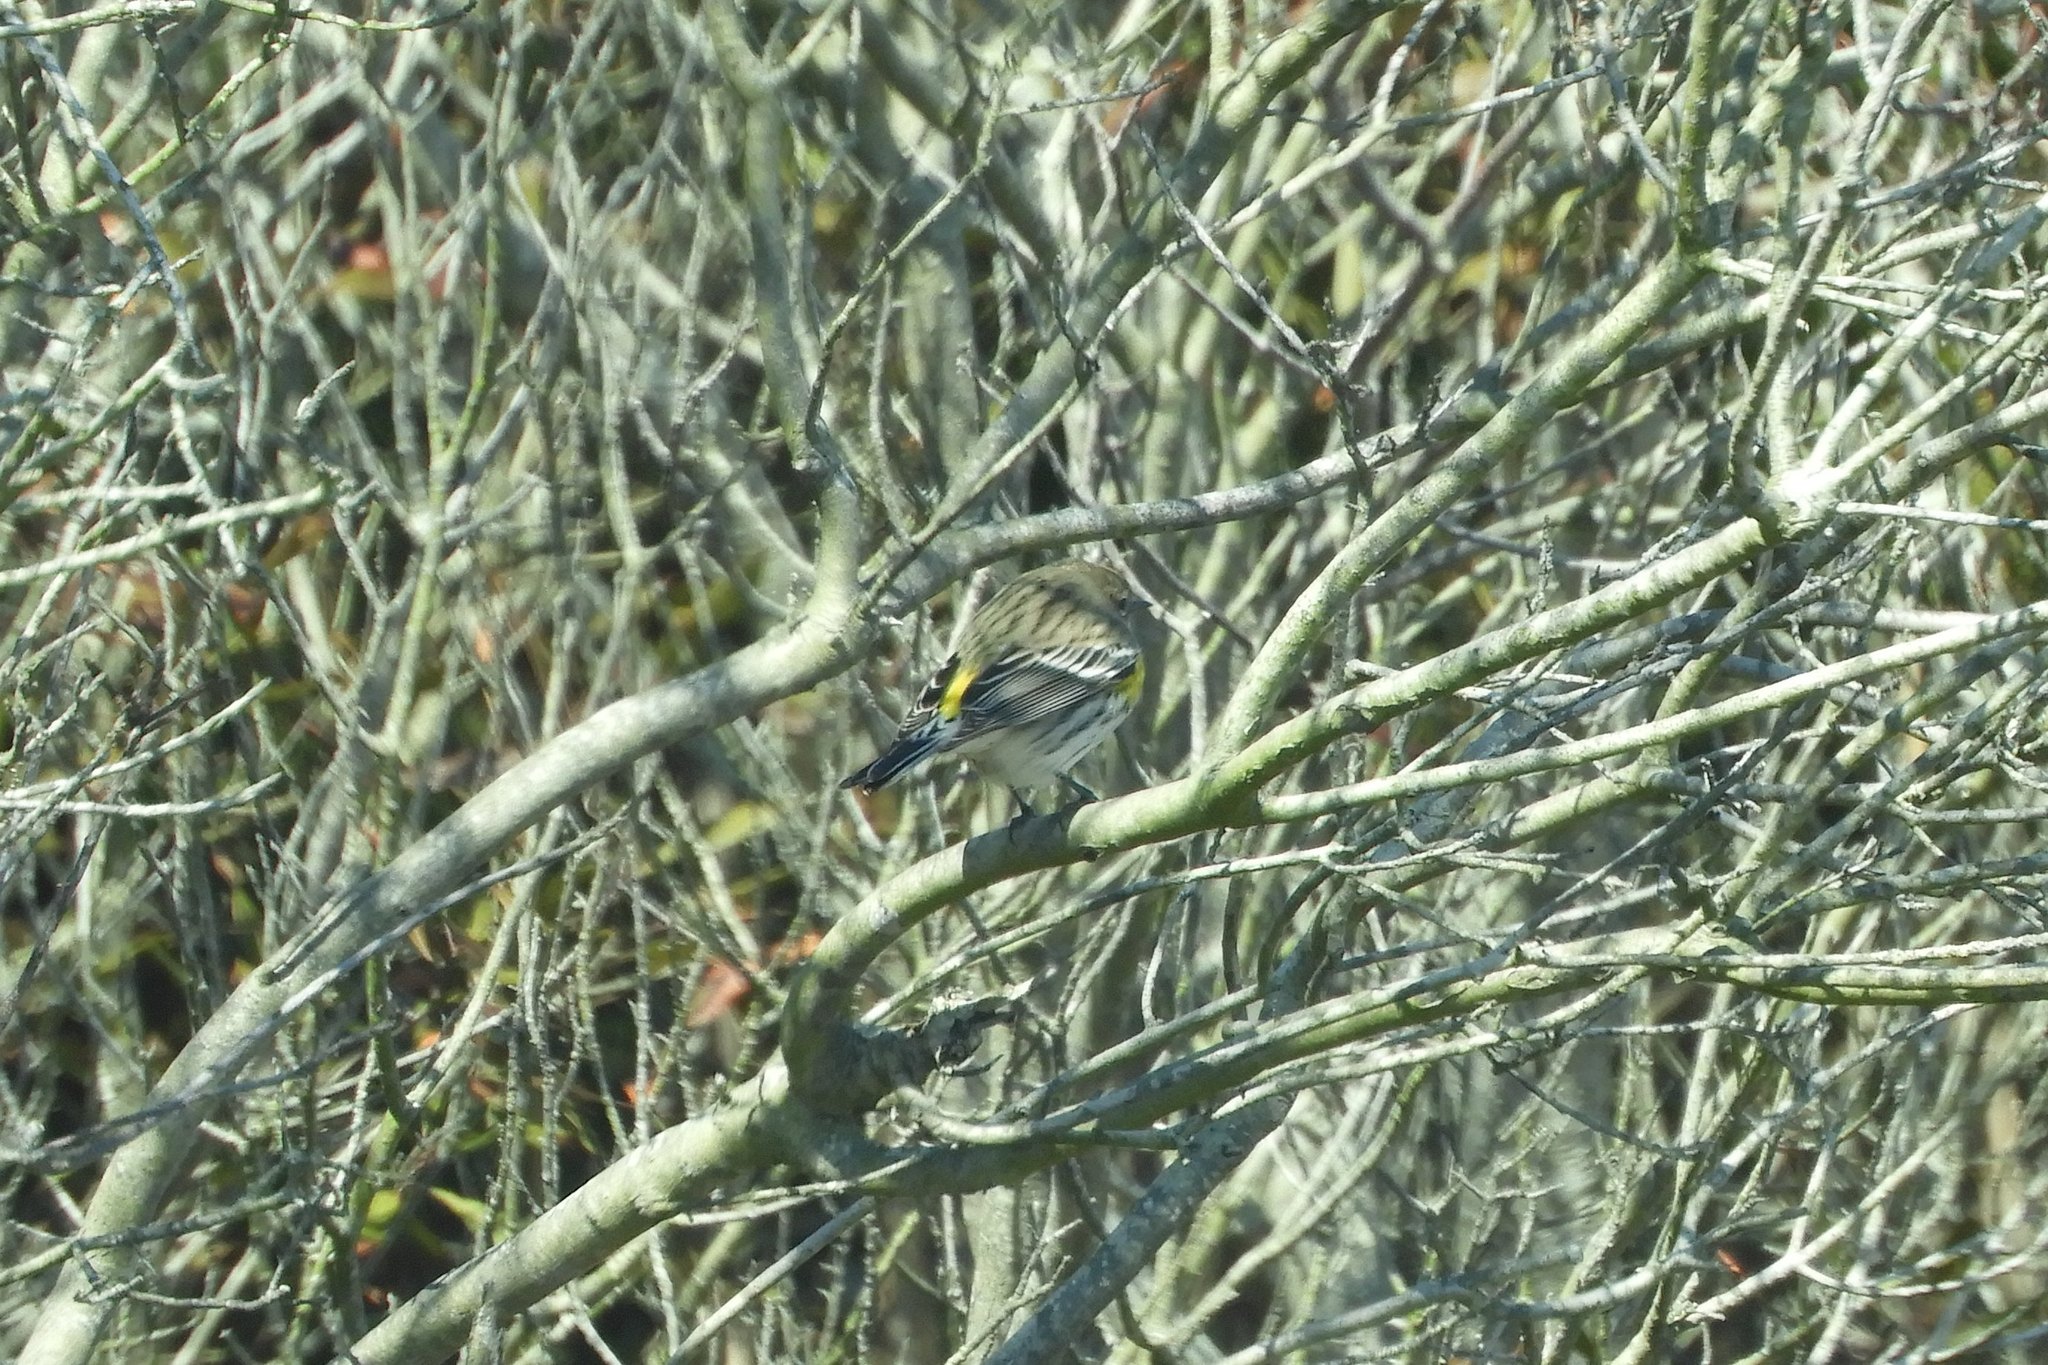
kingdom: Animalia
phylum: Chordata
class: Aves
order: Passeriformes
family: Parulidae
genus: Setophaga
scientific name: Setophaga coronata
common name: Myrtle warbler
